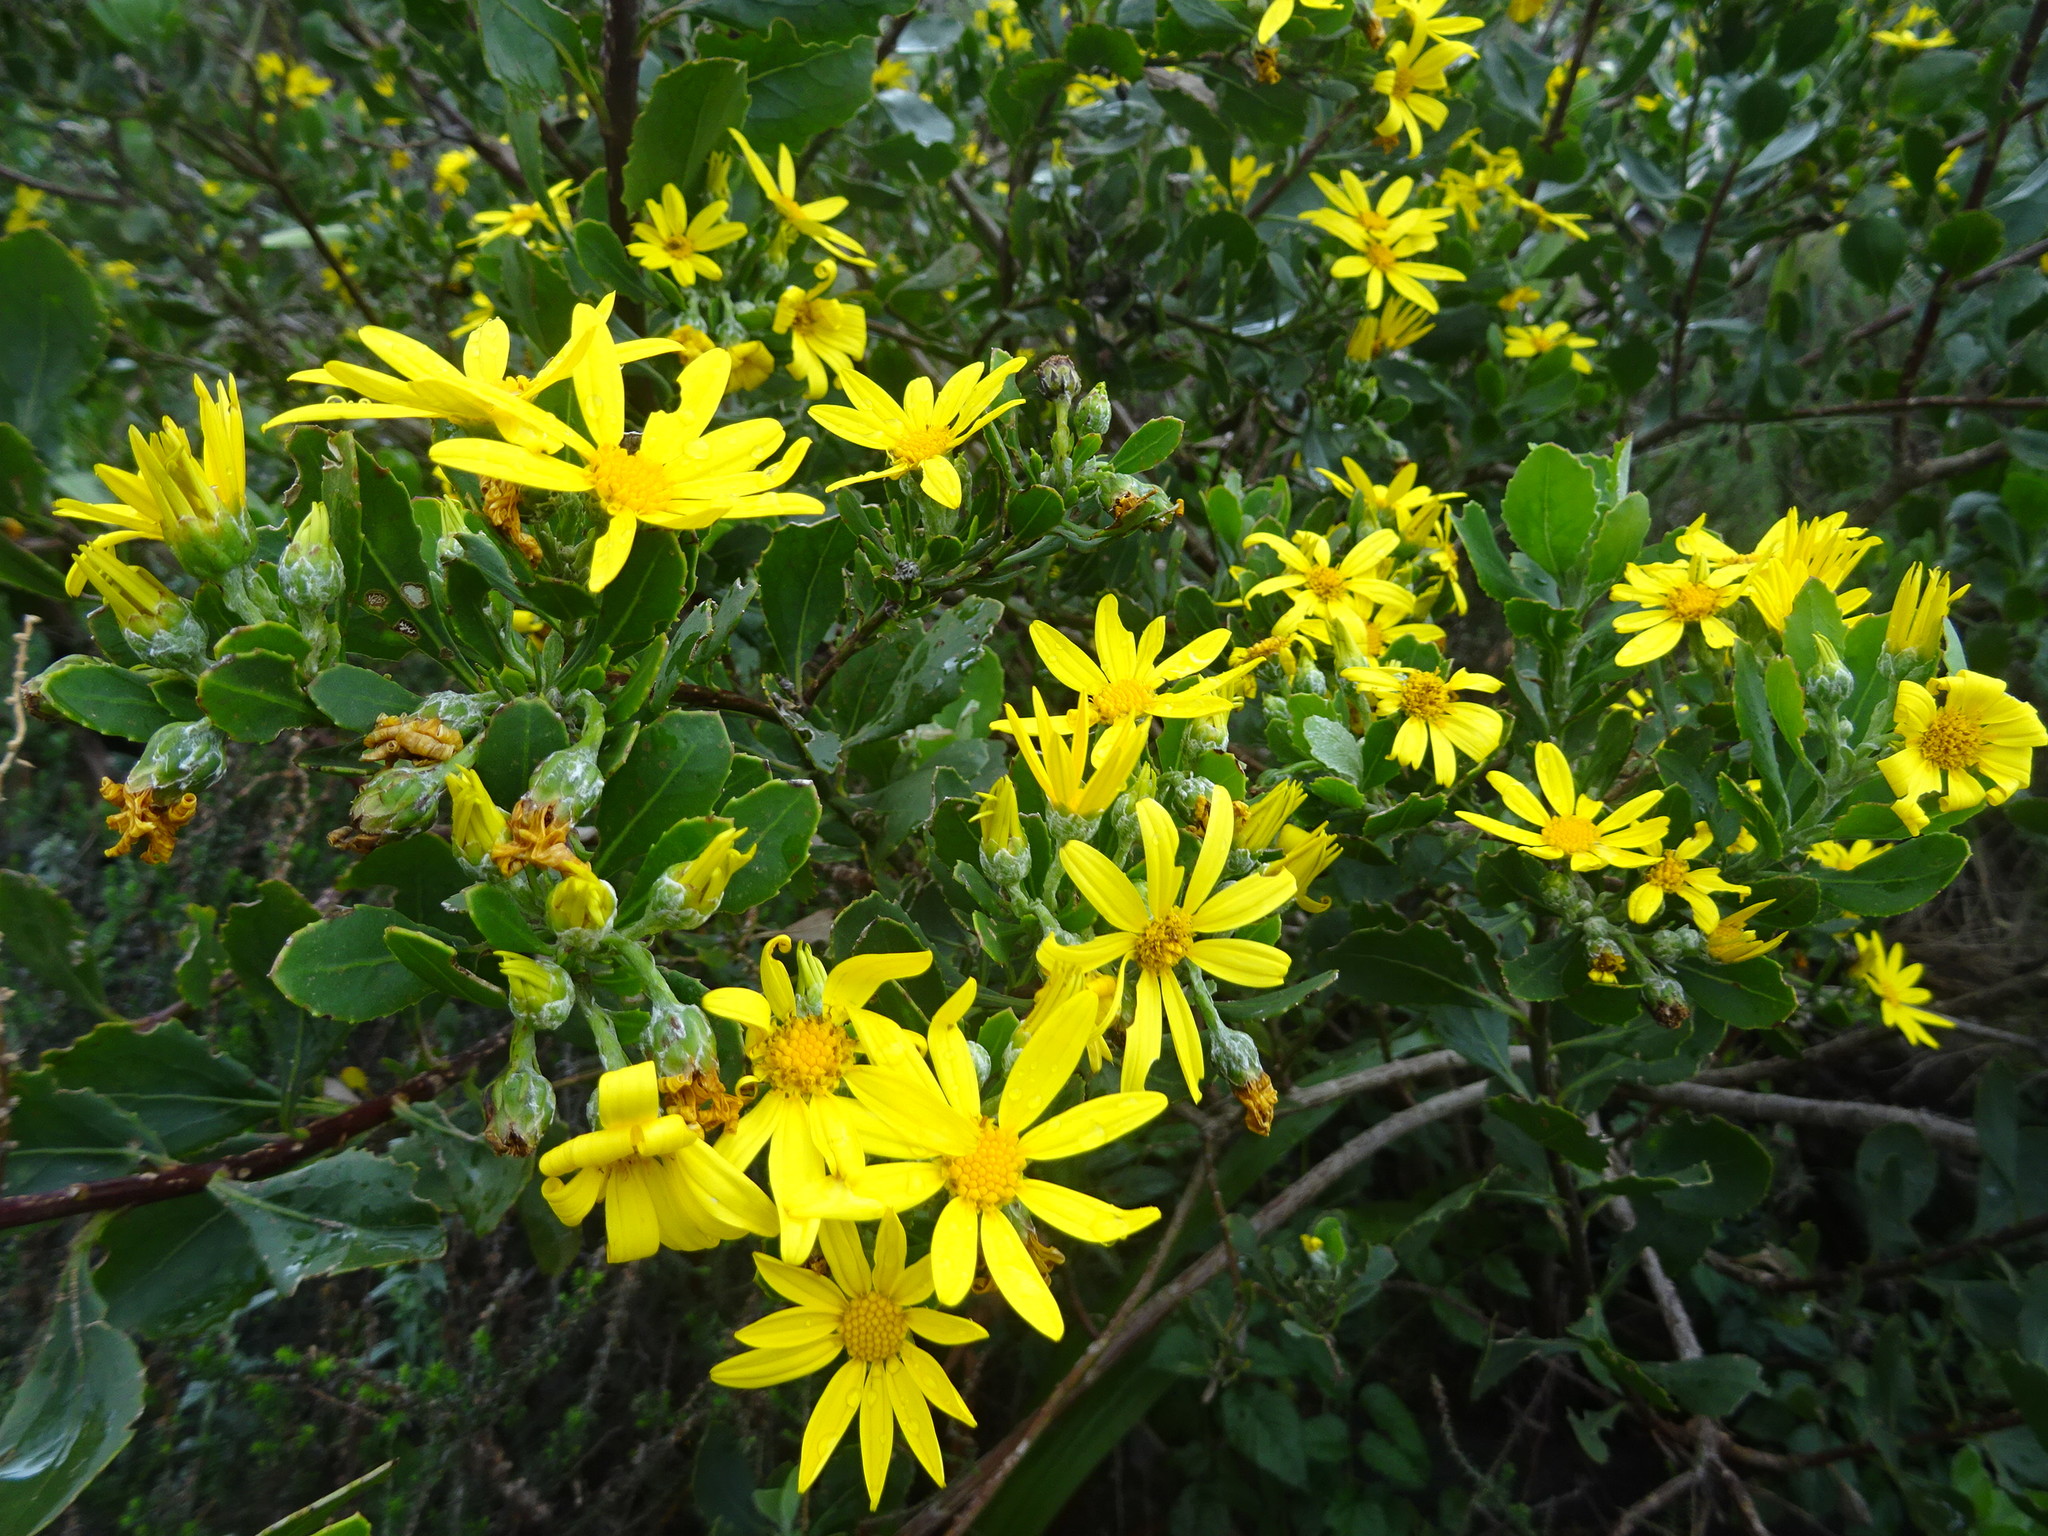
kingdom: Plantae
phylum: Tracheophyta
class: Magnoliopsida
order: Asterales
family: Asteraceae
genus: Osteospermum
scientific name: Osteospermum moniliferum
